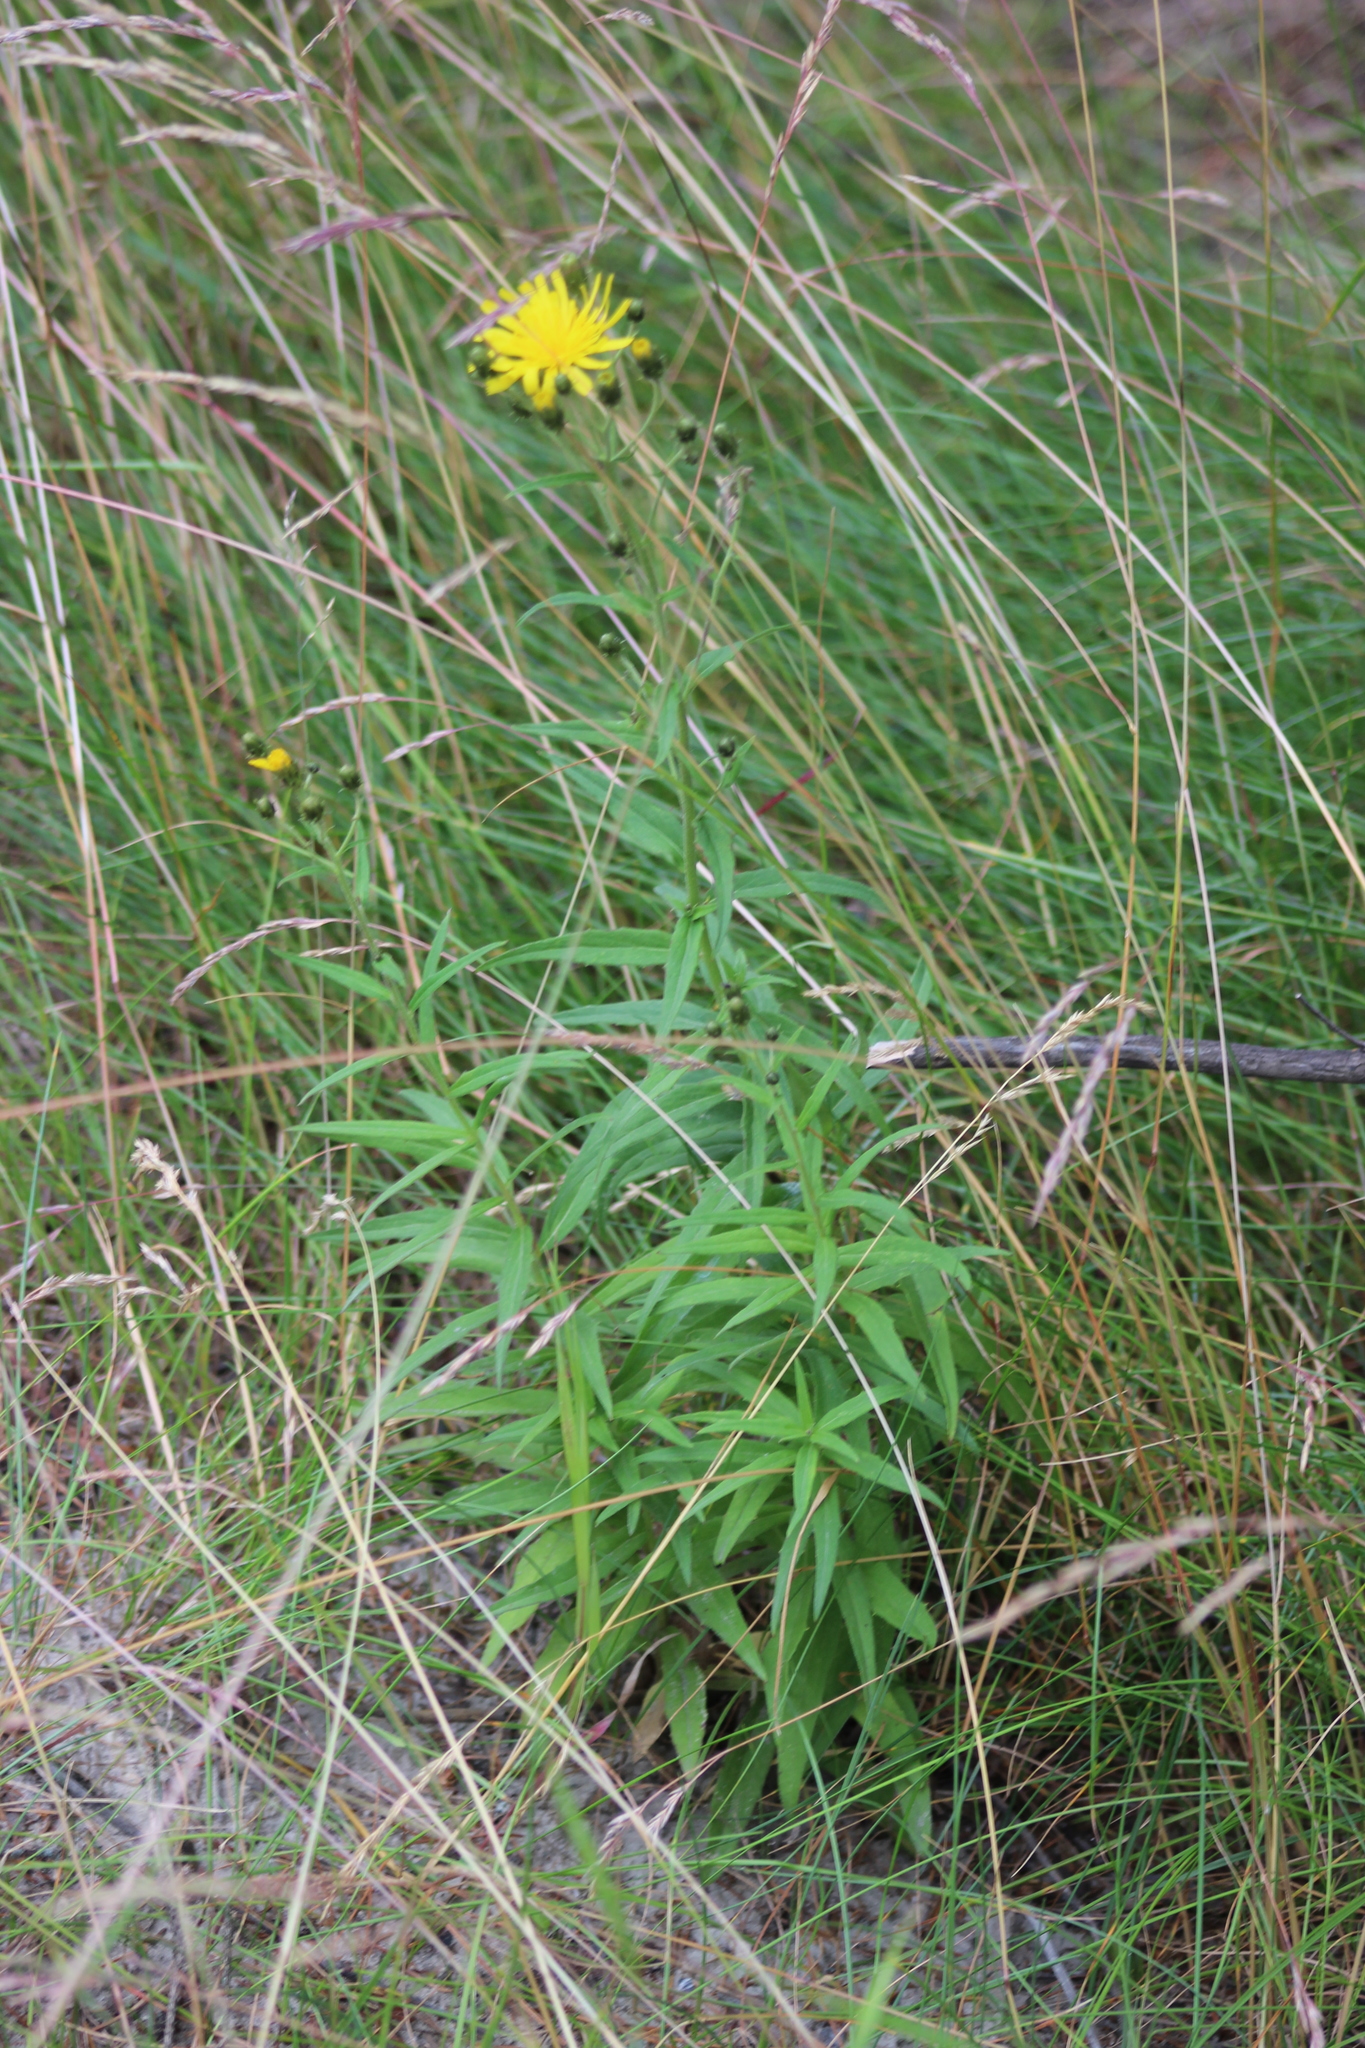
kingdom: Plantae
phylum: Tracheophyta
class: Magnoliopsida
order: Asterales
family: Asteraceae
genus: Hieracium
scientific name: Hieracium umbellatum
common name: Northern hawkweed
